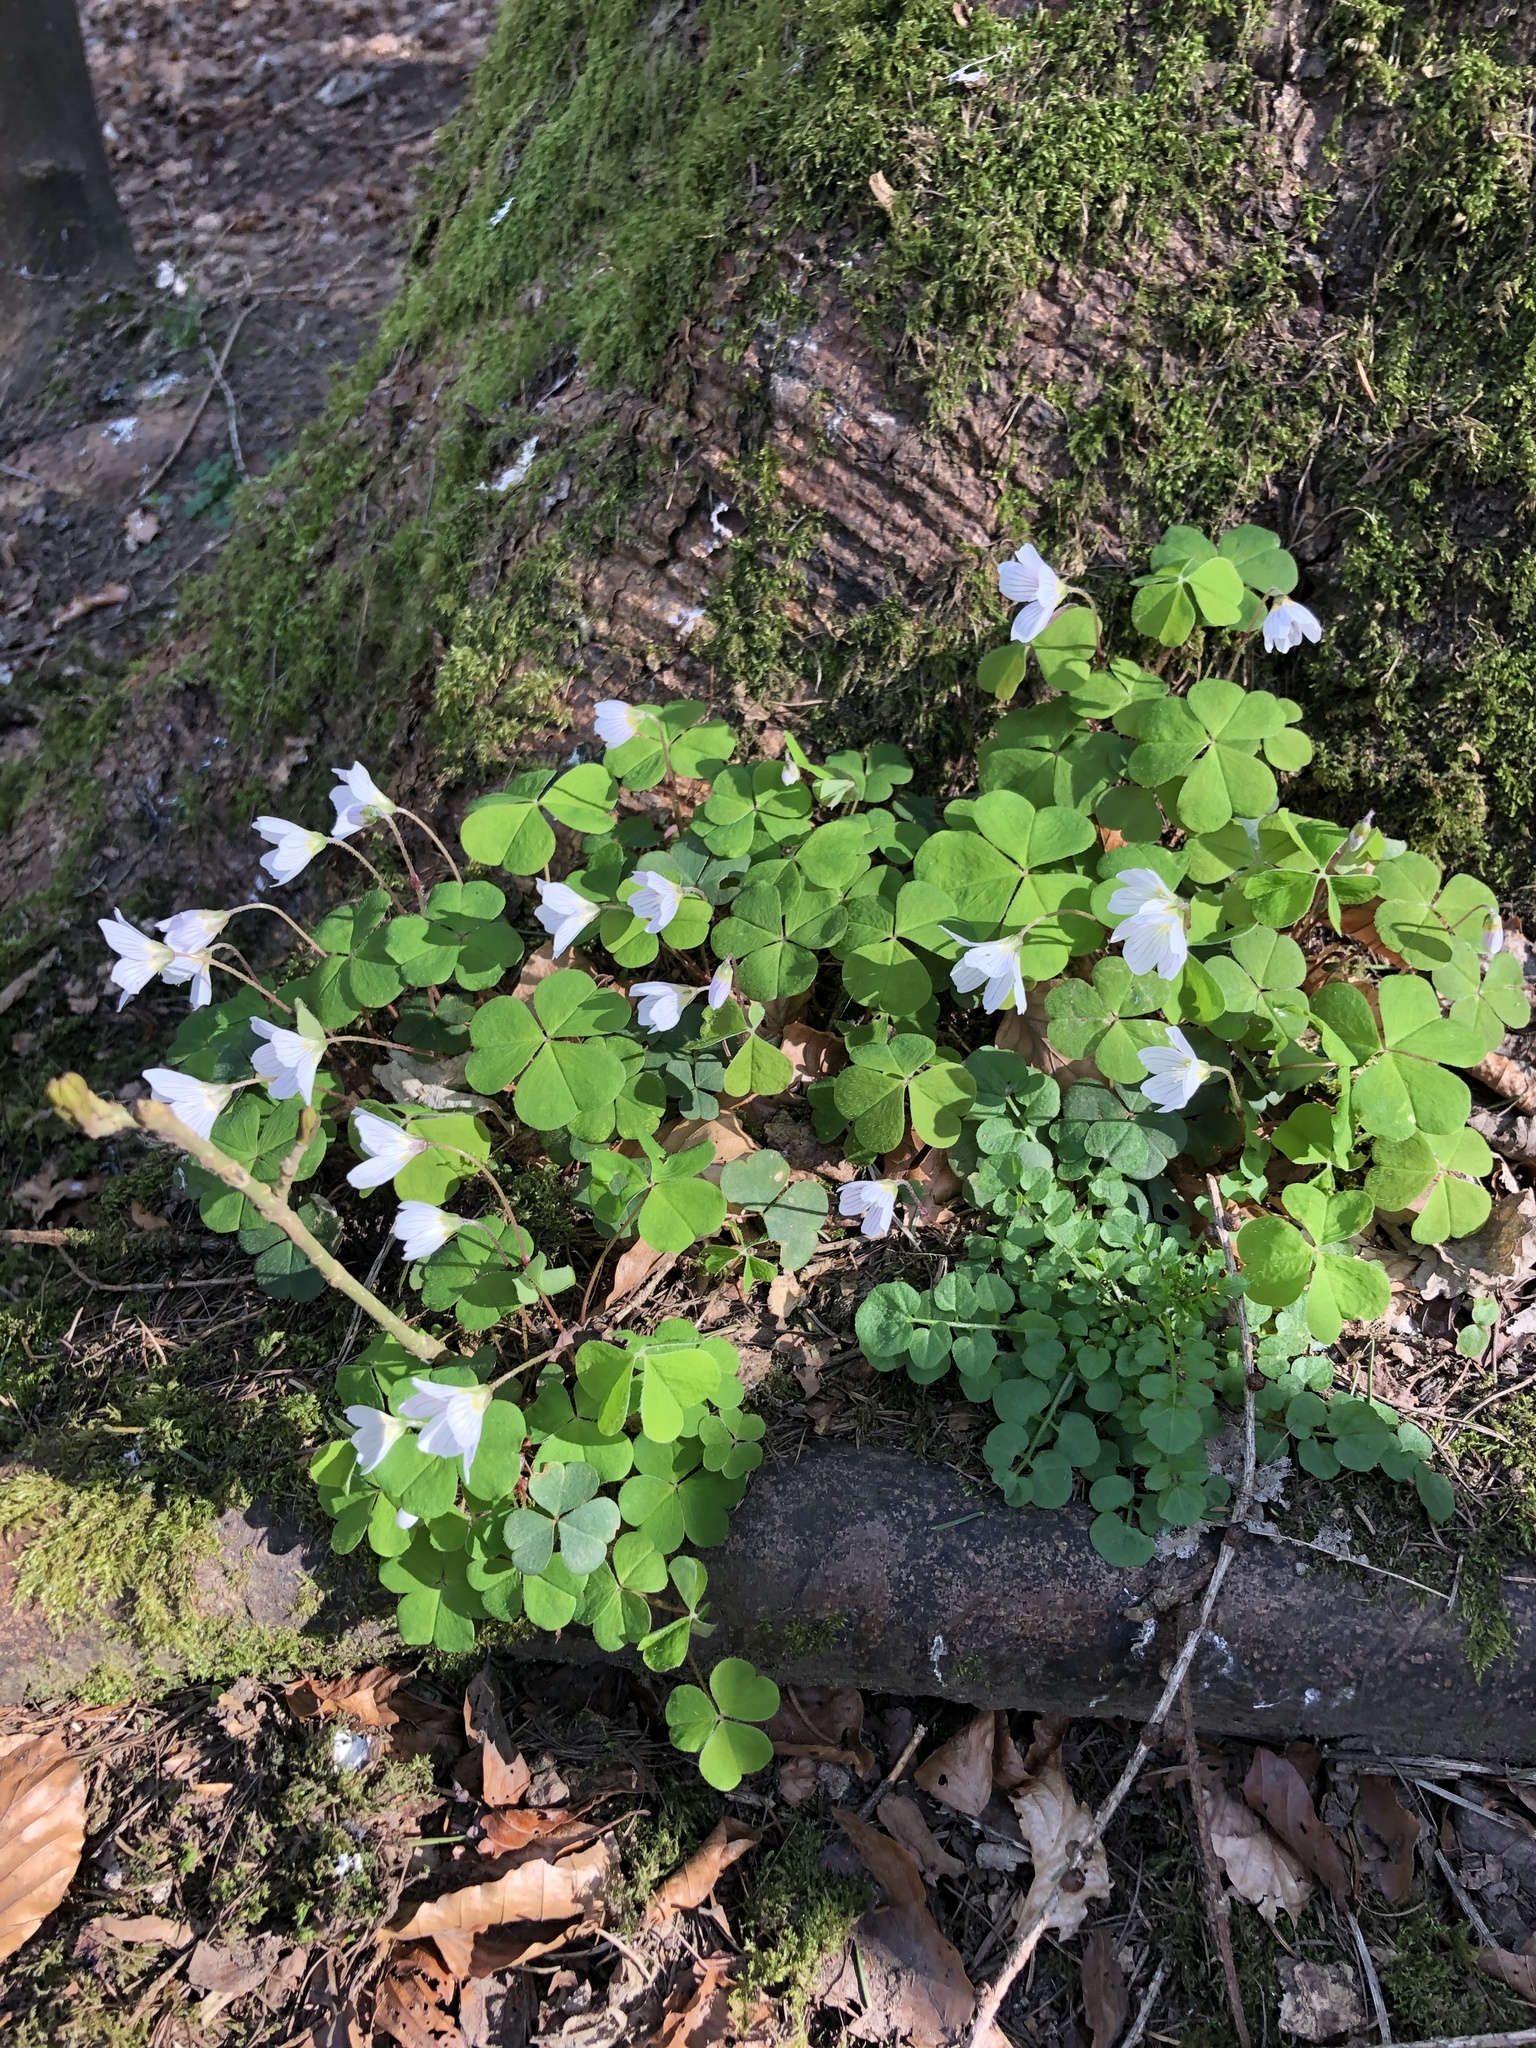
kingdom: Plantae
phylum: Tracheophyta
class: Magnoliopsida
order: Oxalidales
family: Oxalidaceae
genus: Oxalis
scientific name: Oxalis acetosella
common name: Wood-sorrel
